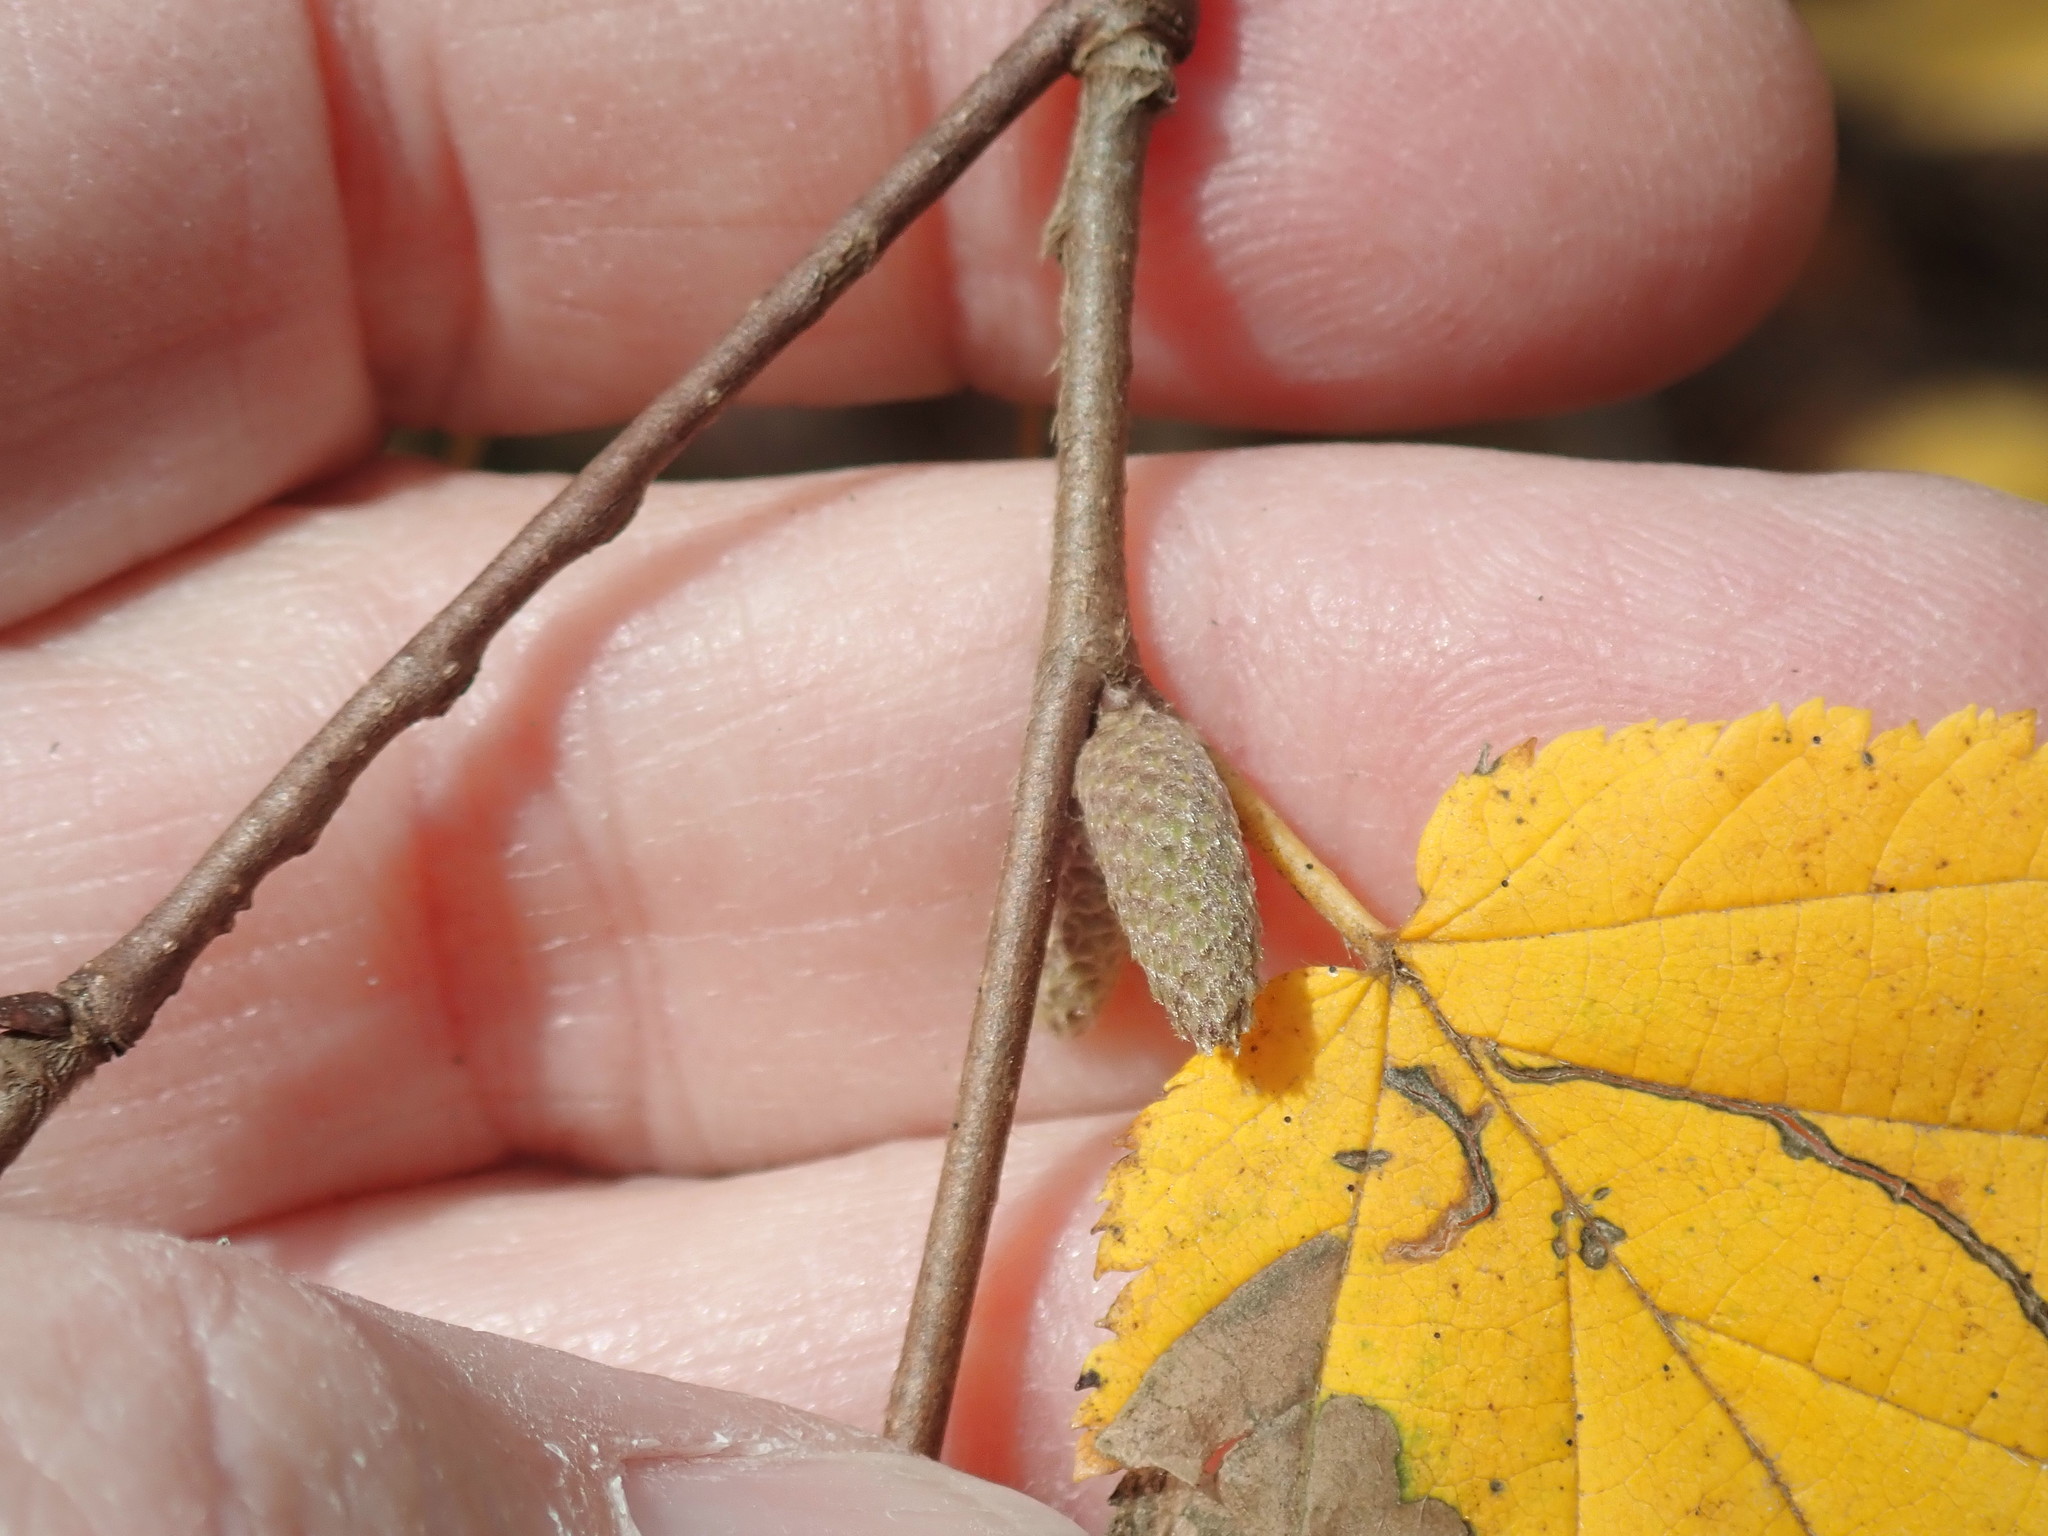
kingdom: Plantae
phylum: Tracheophyta
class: Magnoliopsida
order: Fagales
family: Betulaceae
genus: Corylus
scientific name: Corylus cornuta
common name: Beaked hazel
